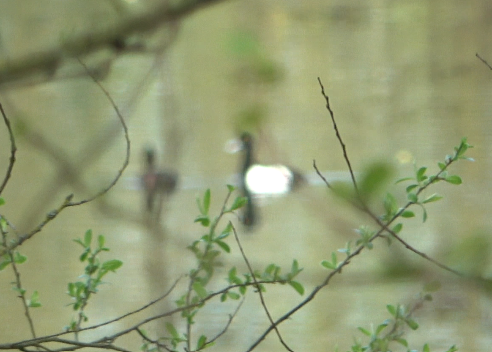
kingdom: Animalia
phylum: Chordata
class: Aves
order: Anseriformes
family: Anatidae
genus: Aythya
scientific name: Aythya fuligula
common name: Tufted duck
